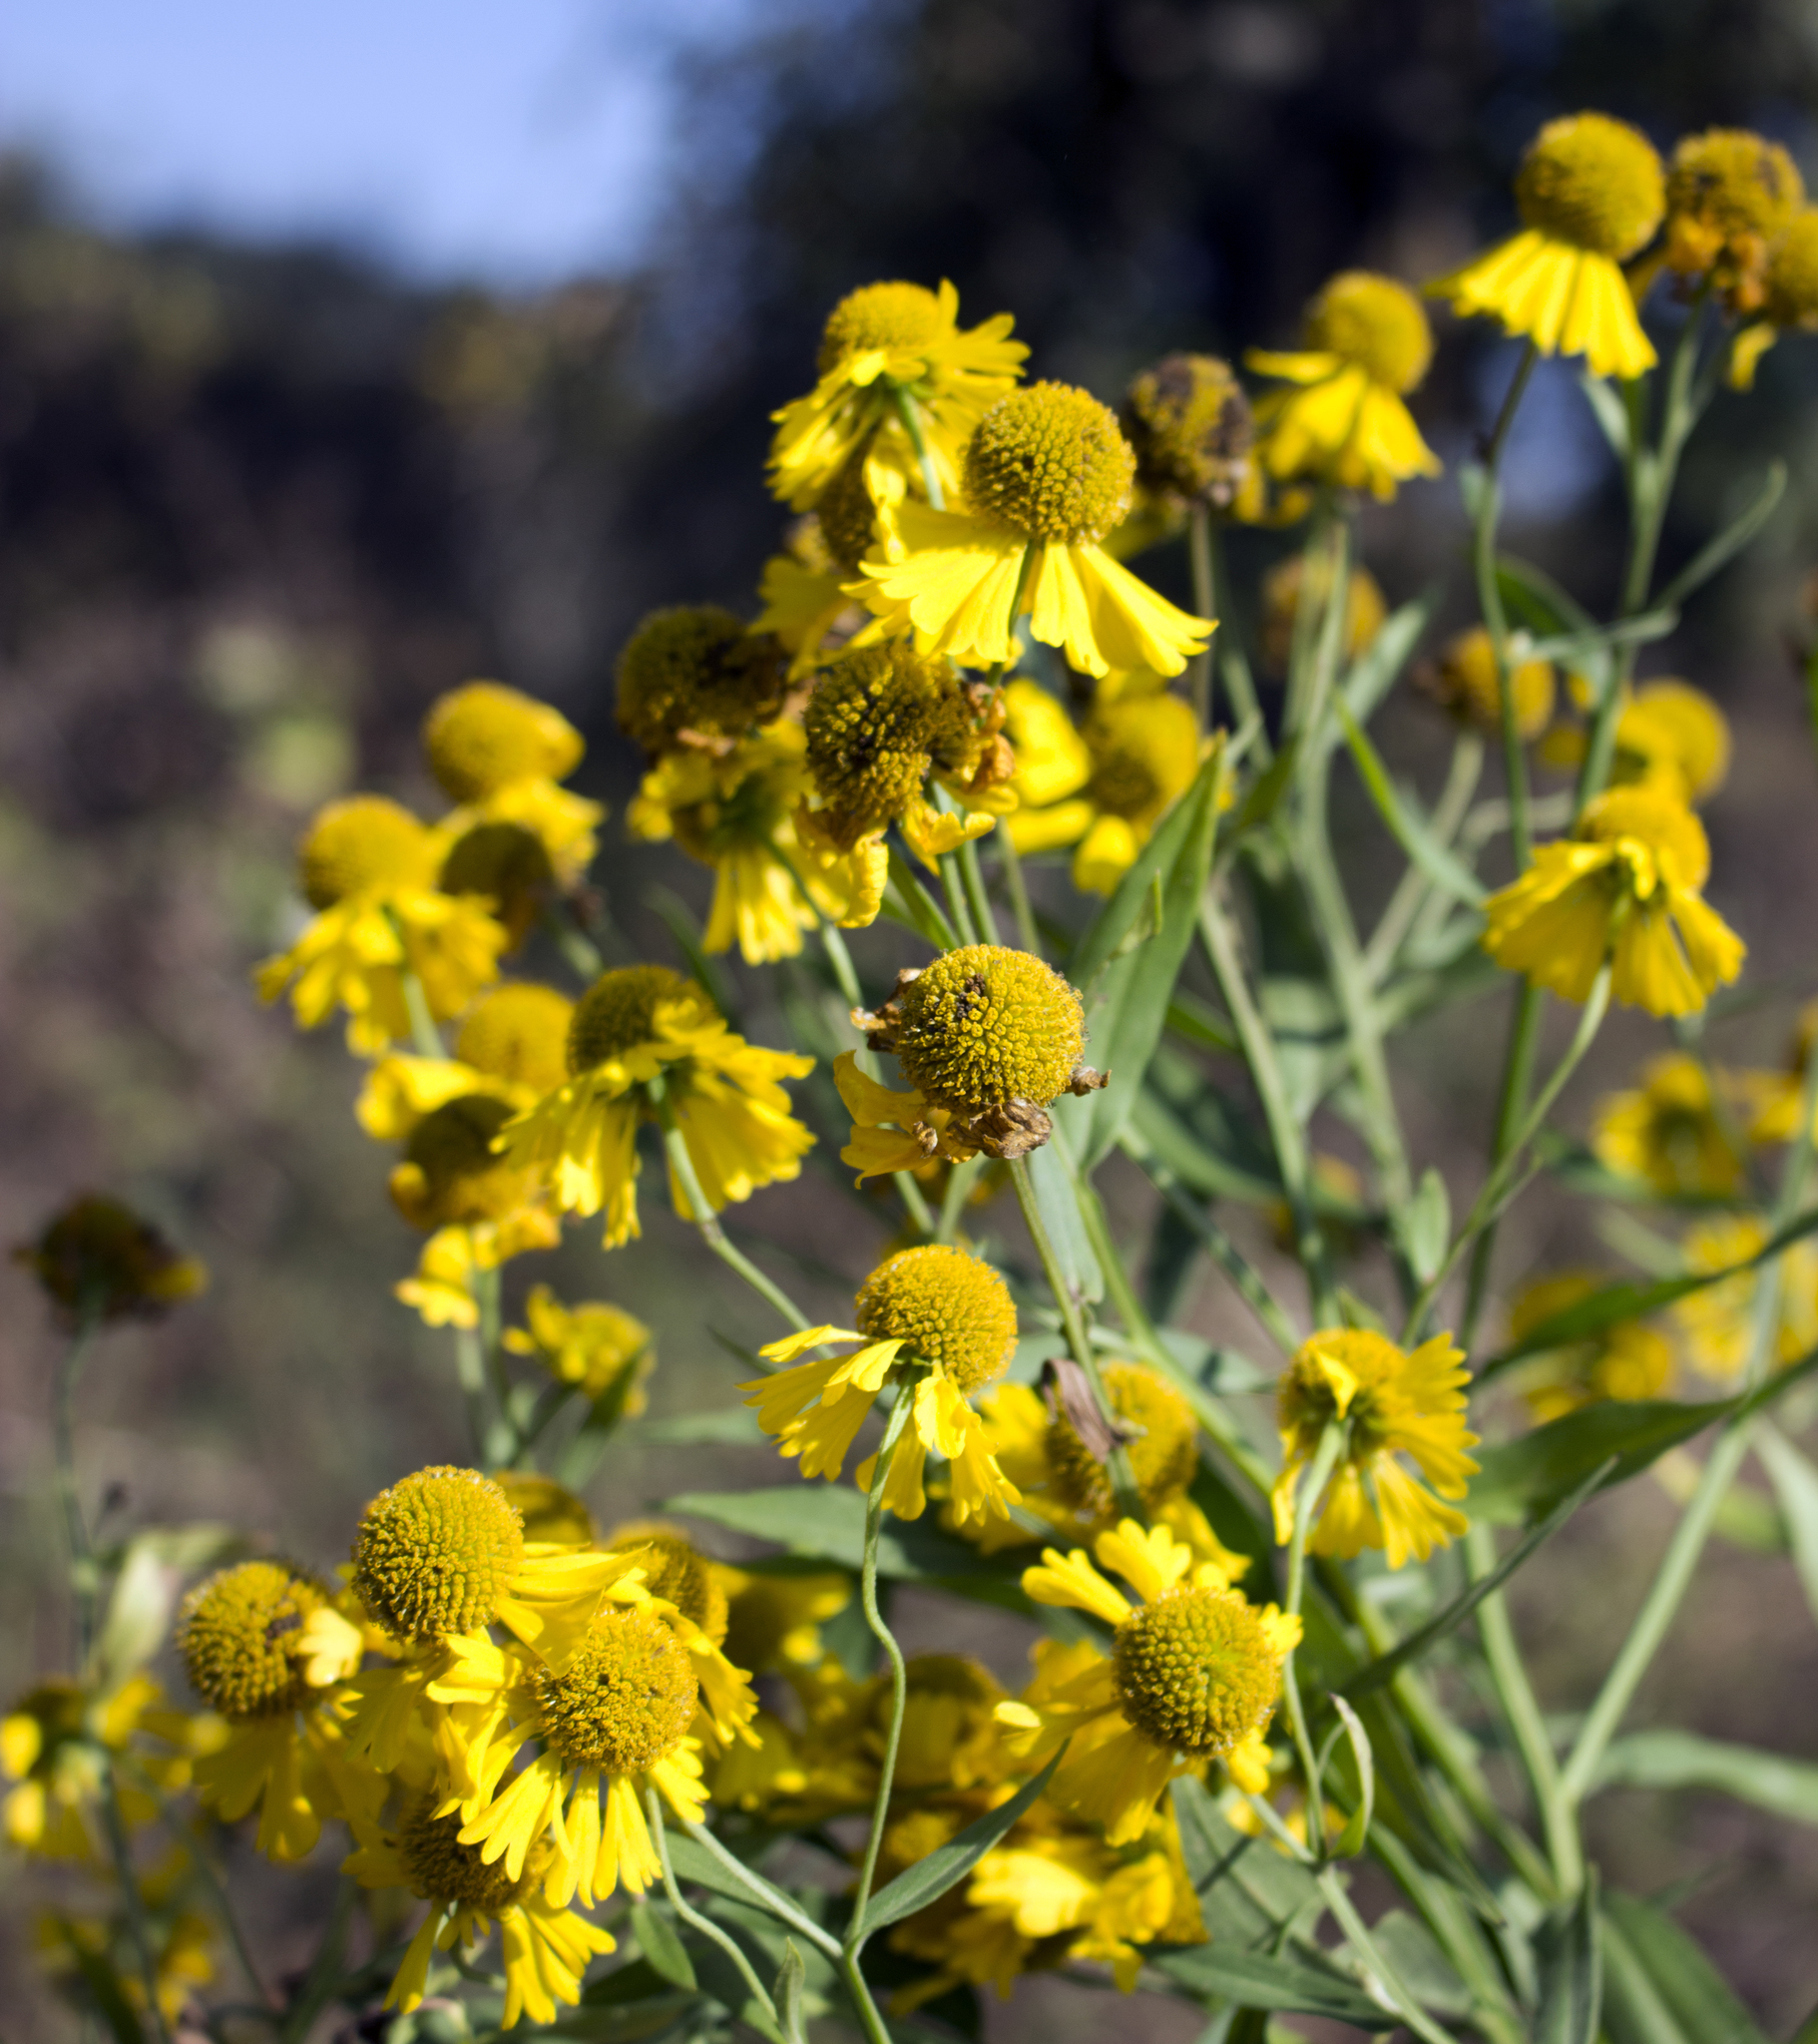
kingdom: Plantae
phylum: Tracheophyta
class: Magnoliopsida
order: Asterales
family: Asteraceae
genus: Helenium
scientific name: Helenium autumnale
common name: Sneezeweed
